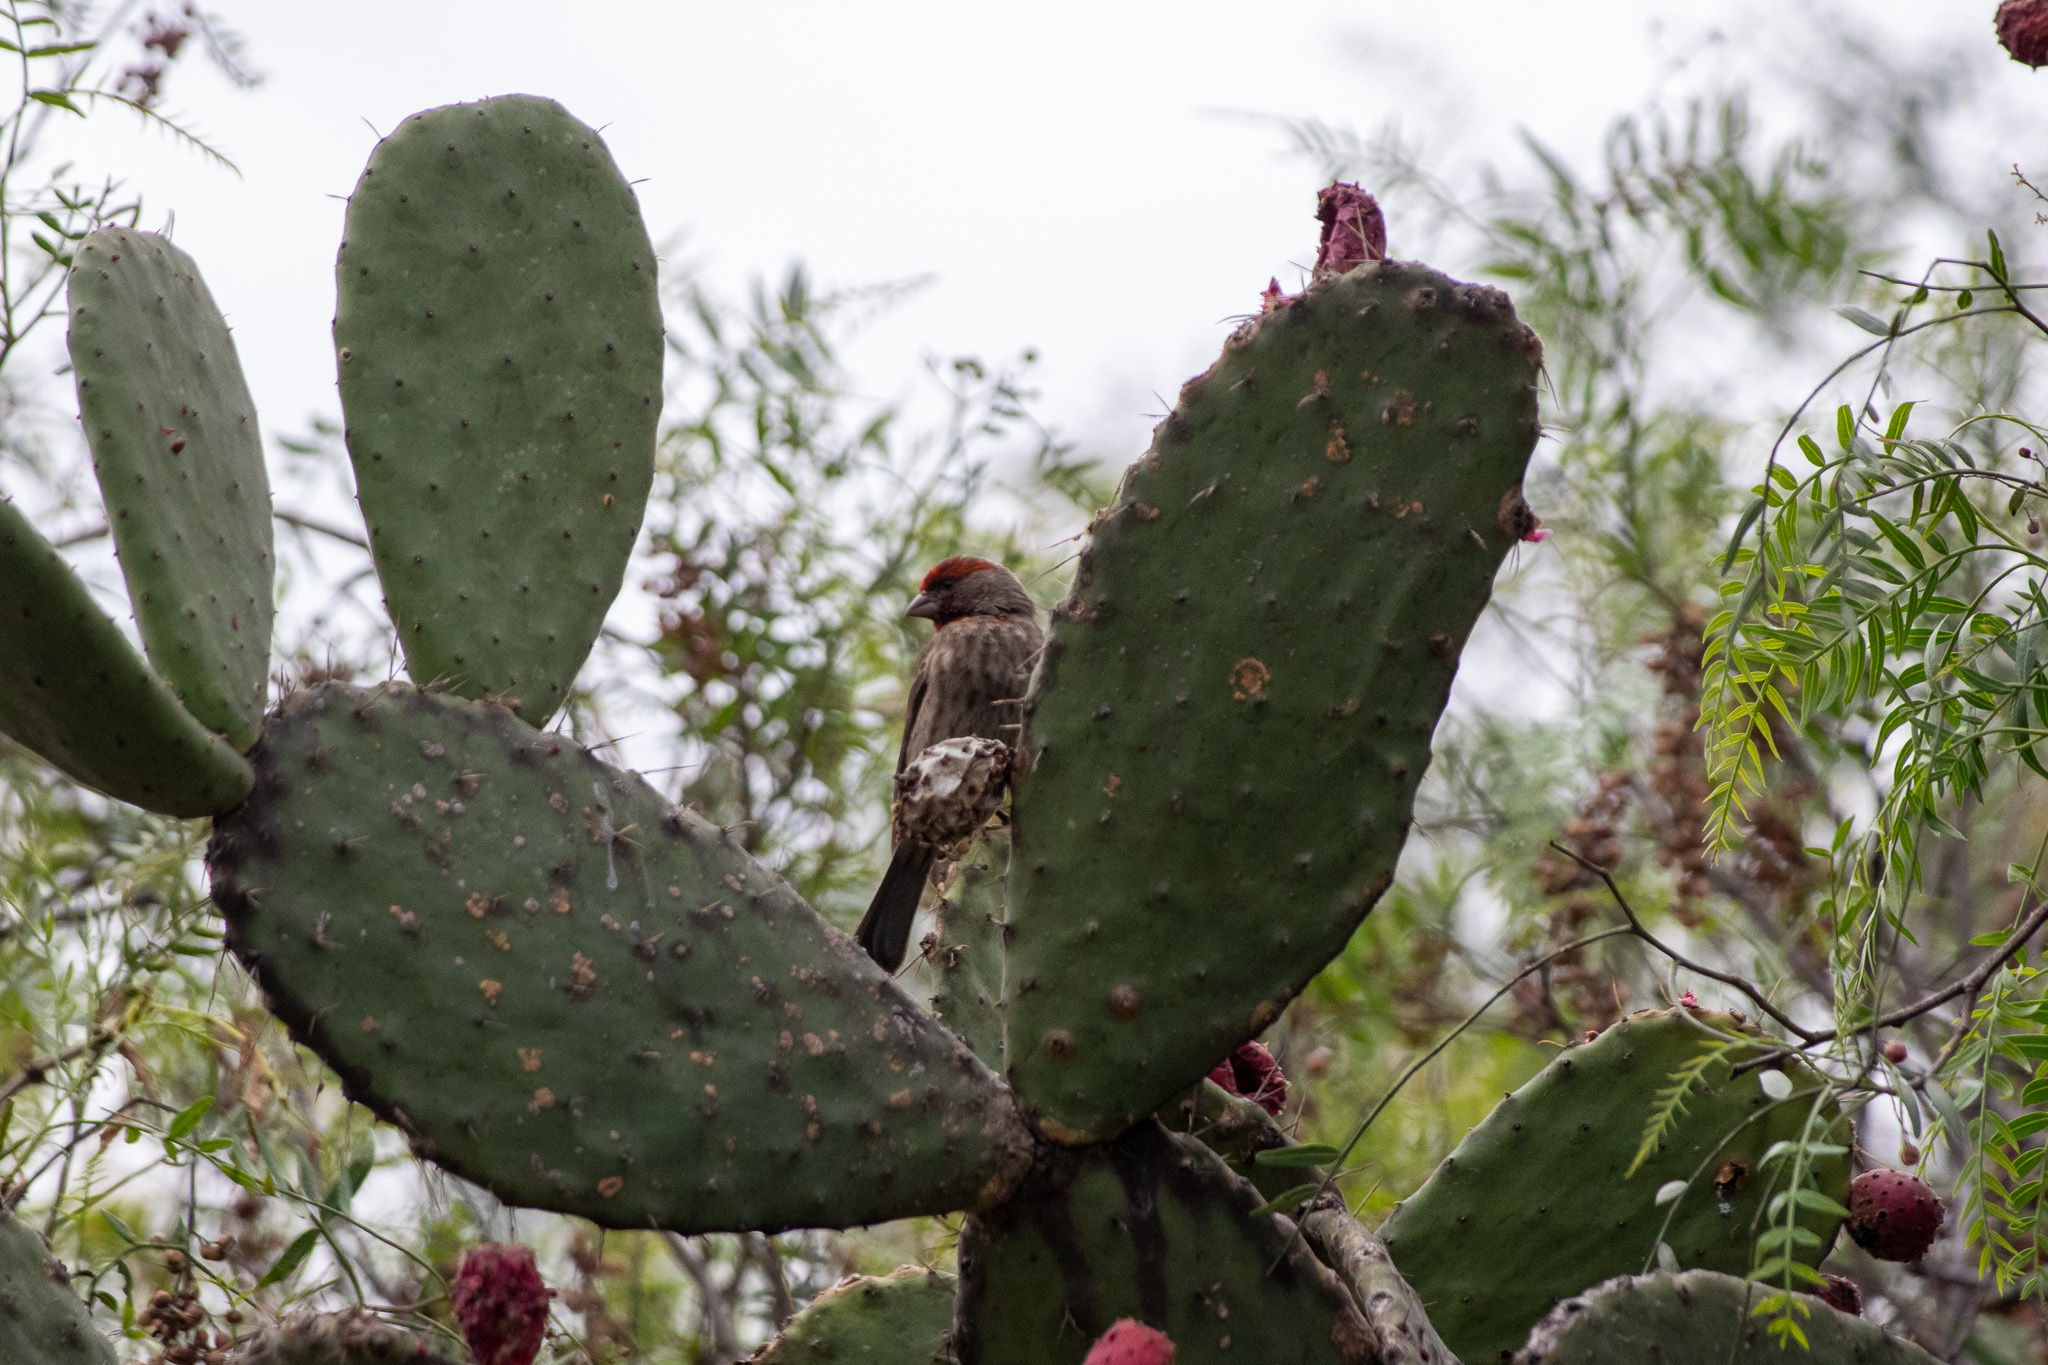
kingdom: Animalia
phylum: Chordata
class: Aves
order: Passeriformes
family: Fringillidae
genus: Haemorhous
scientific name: Haemorhous mexicanus
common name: House finch
